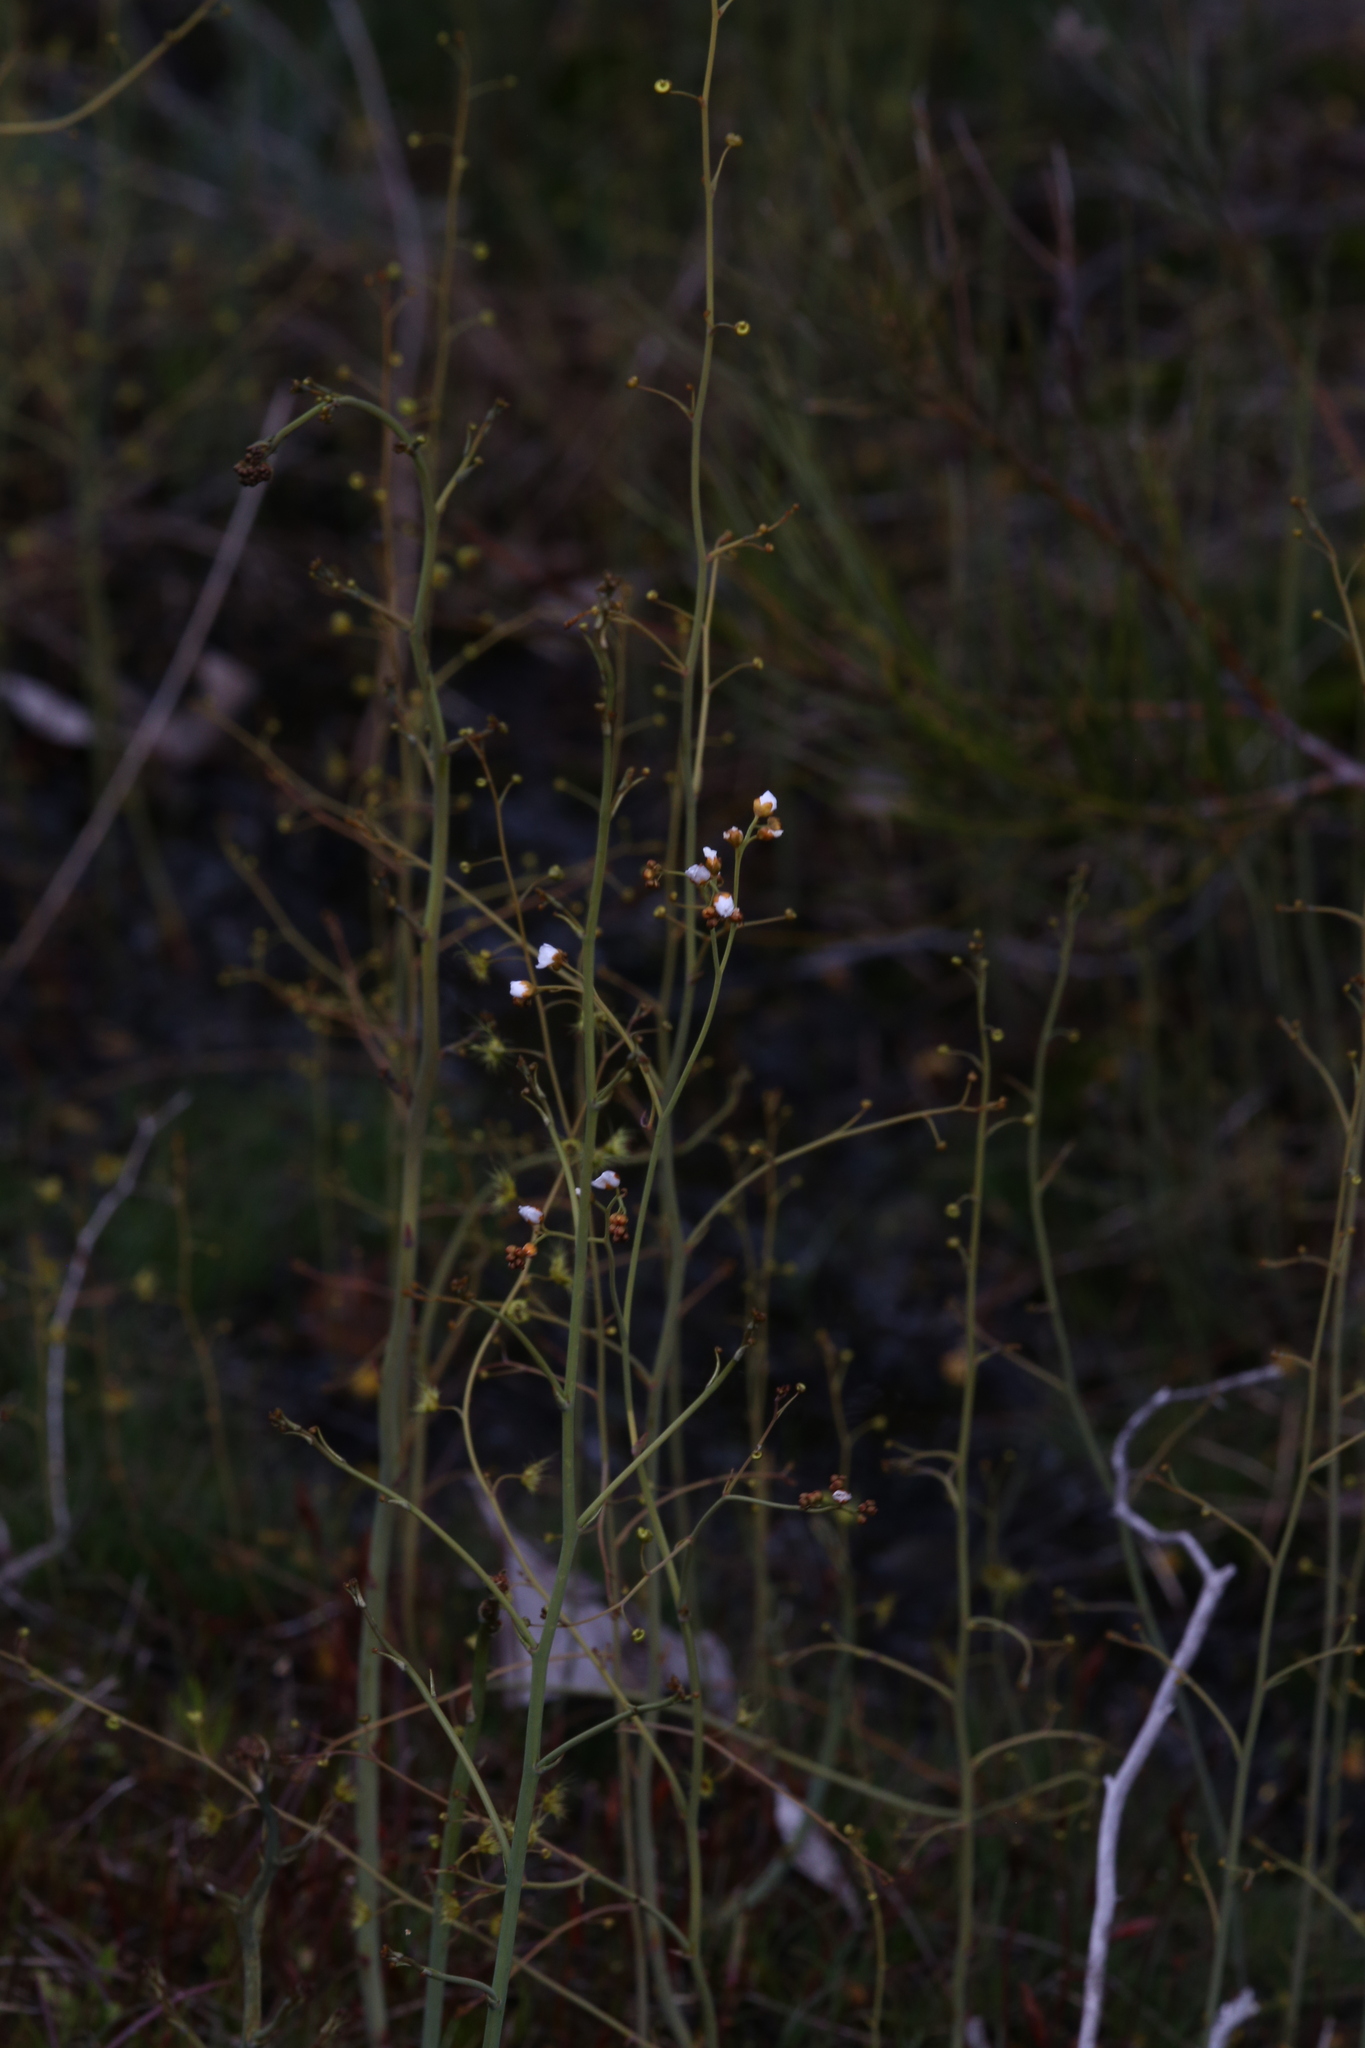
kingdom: Plantae
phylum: Tracheophyta
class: Magnoliopsida
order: Caryophyllales
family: Droseraceae
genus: Drosera
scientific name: Drosera gigantea
